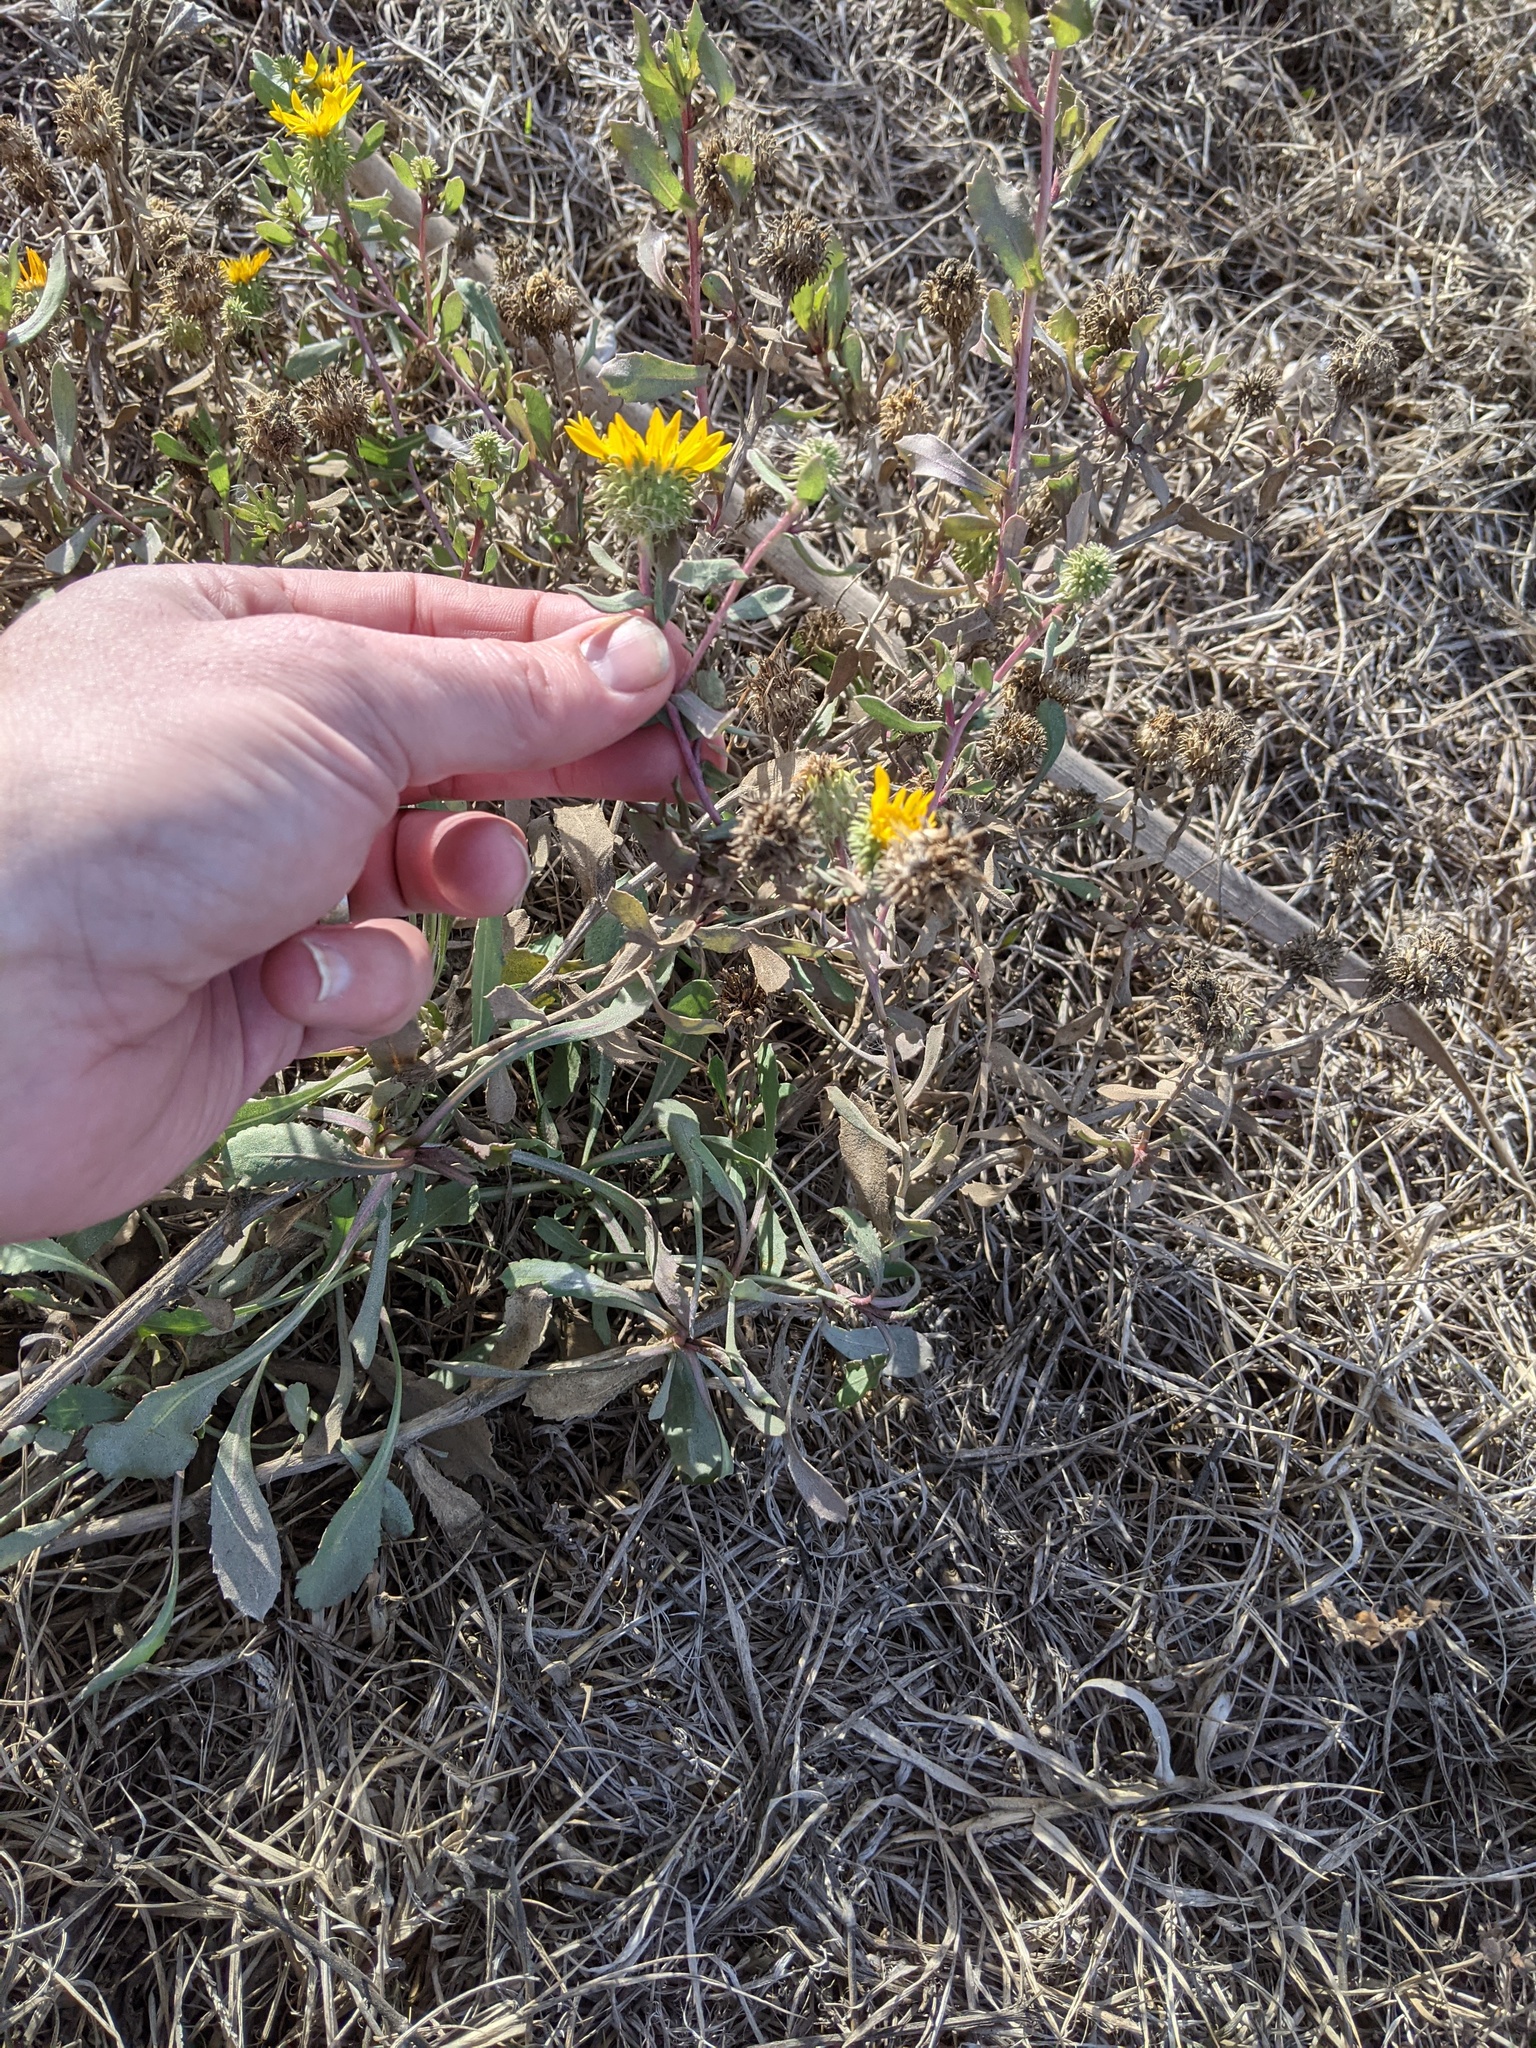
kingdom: Plantae
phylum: Tracheophyta
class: Magnoliopsida
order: Asterales
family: Asteraceae
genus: Grindelia
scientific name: Grindelia hirsutula
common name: Hairy gumweed
